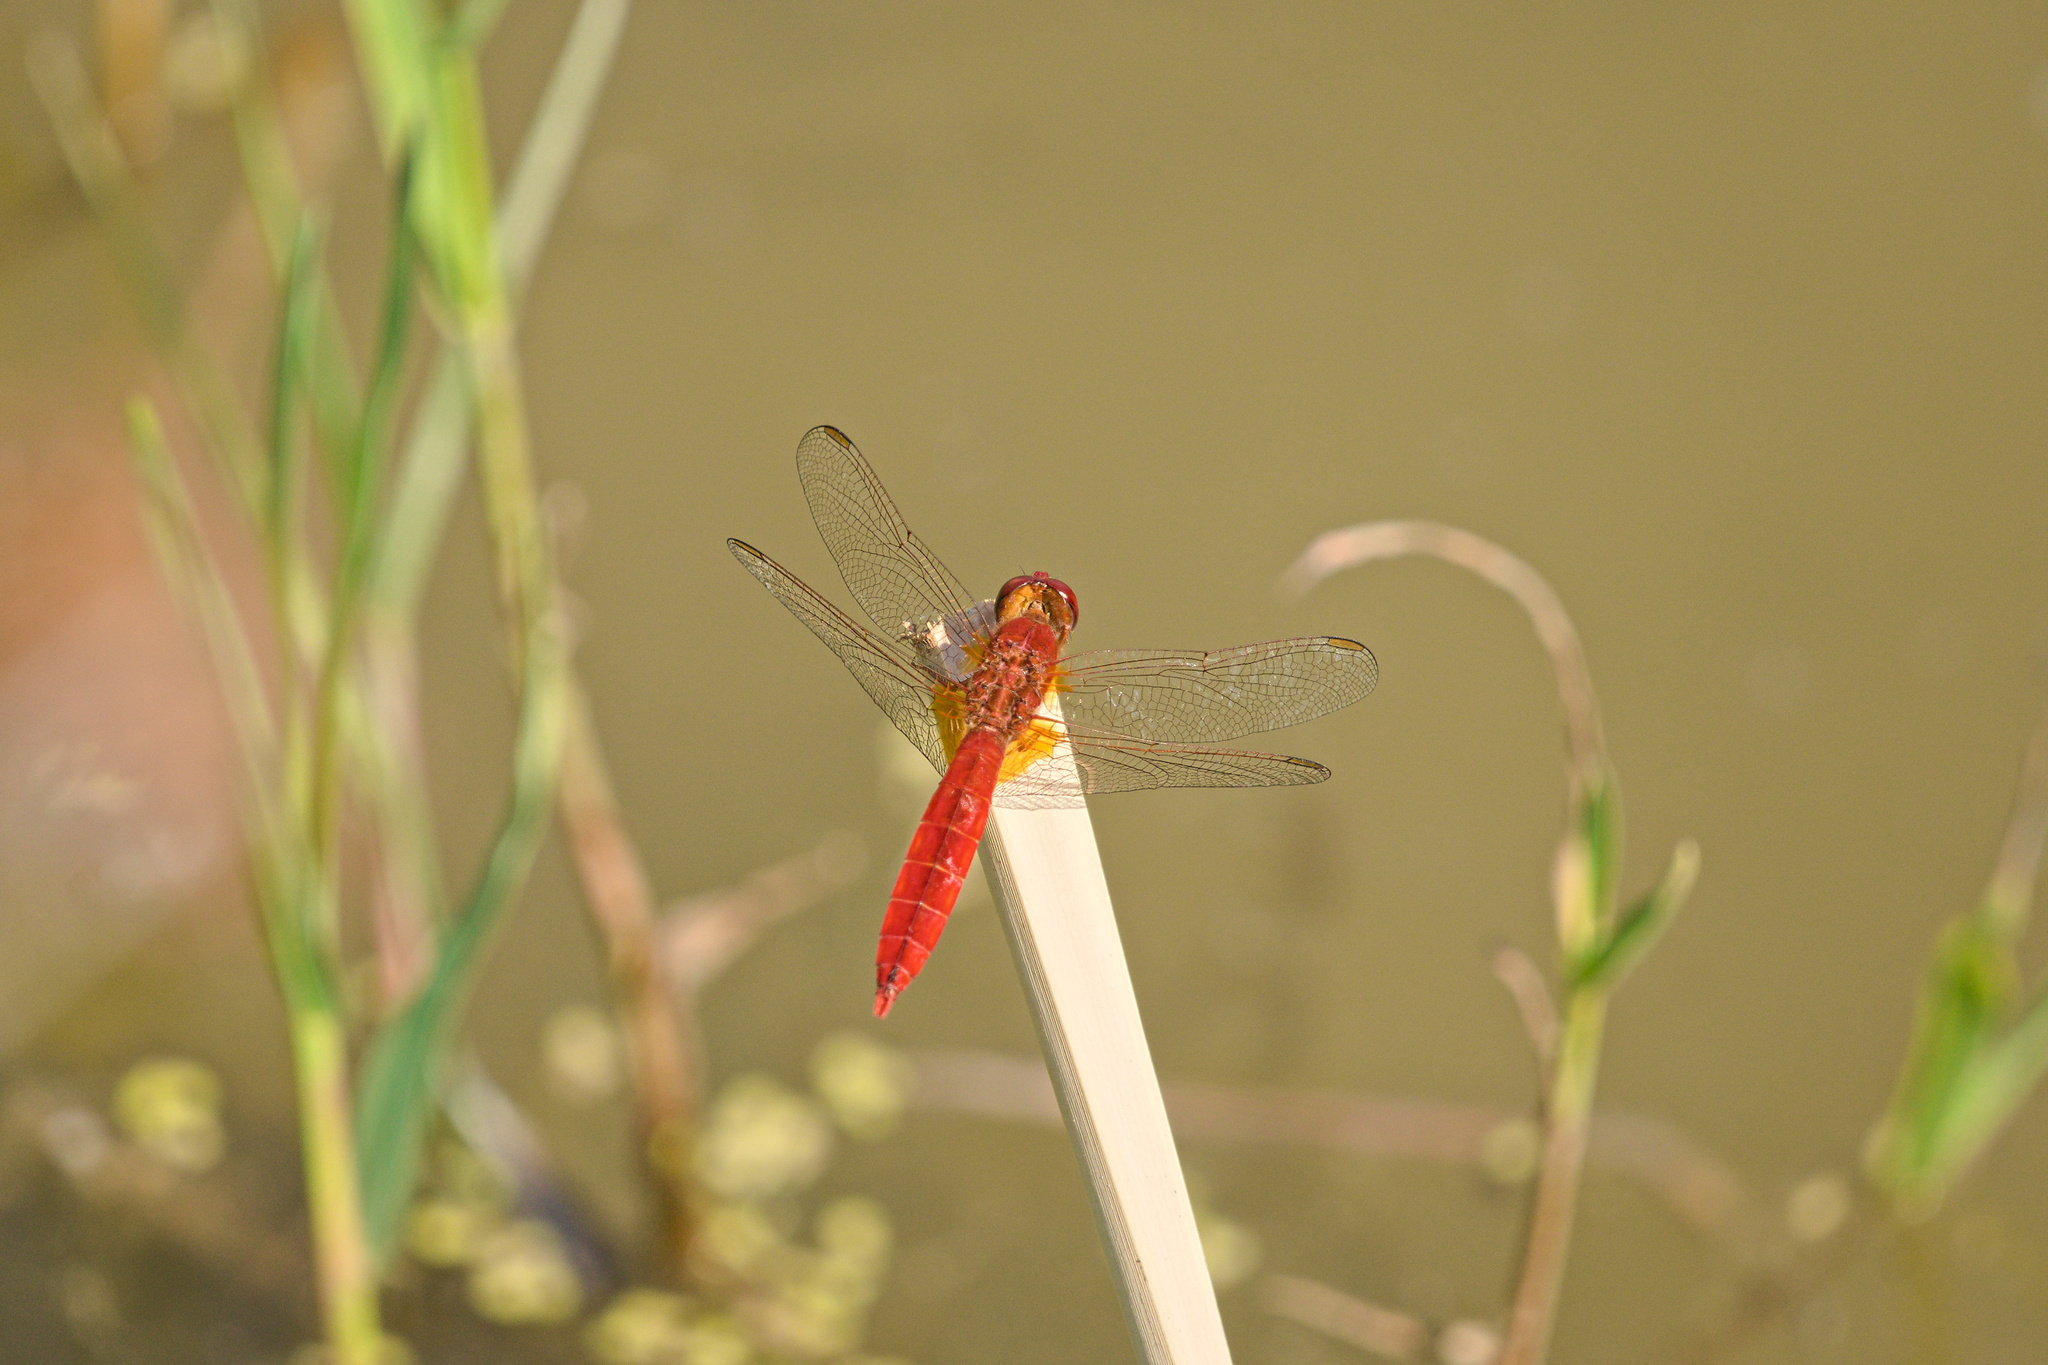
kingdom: Animalia
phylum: Arthropoda
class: Insecta
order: Odonata
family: Libellulidae
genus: Crocothemis
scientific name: Crocothemis erythraea
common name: Scarlet dragonfly
